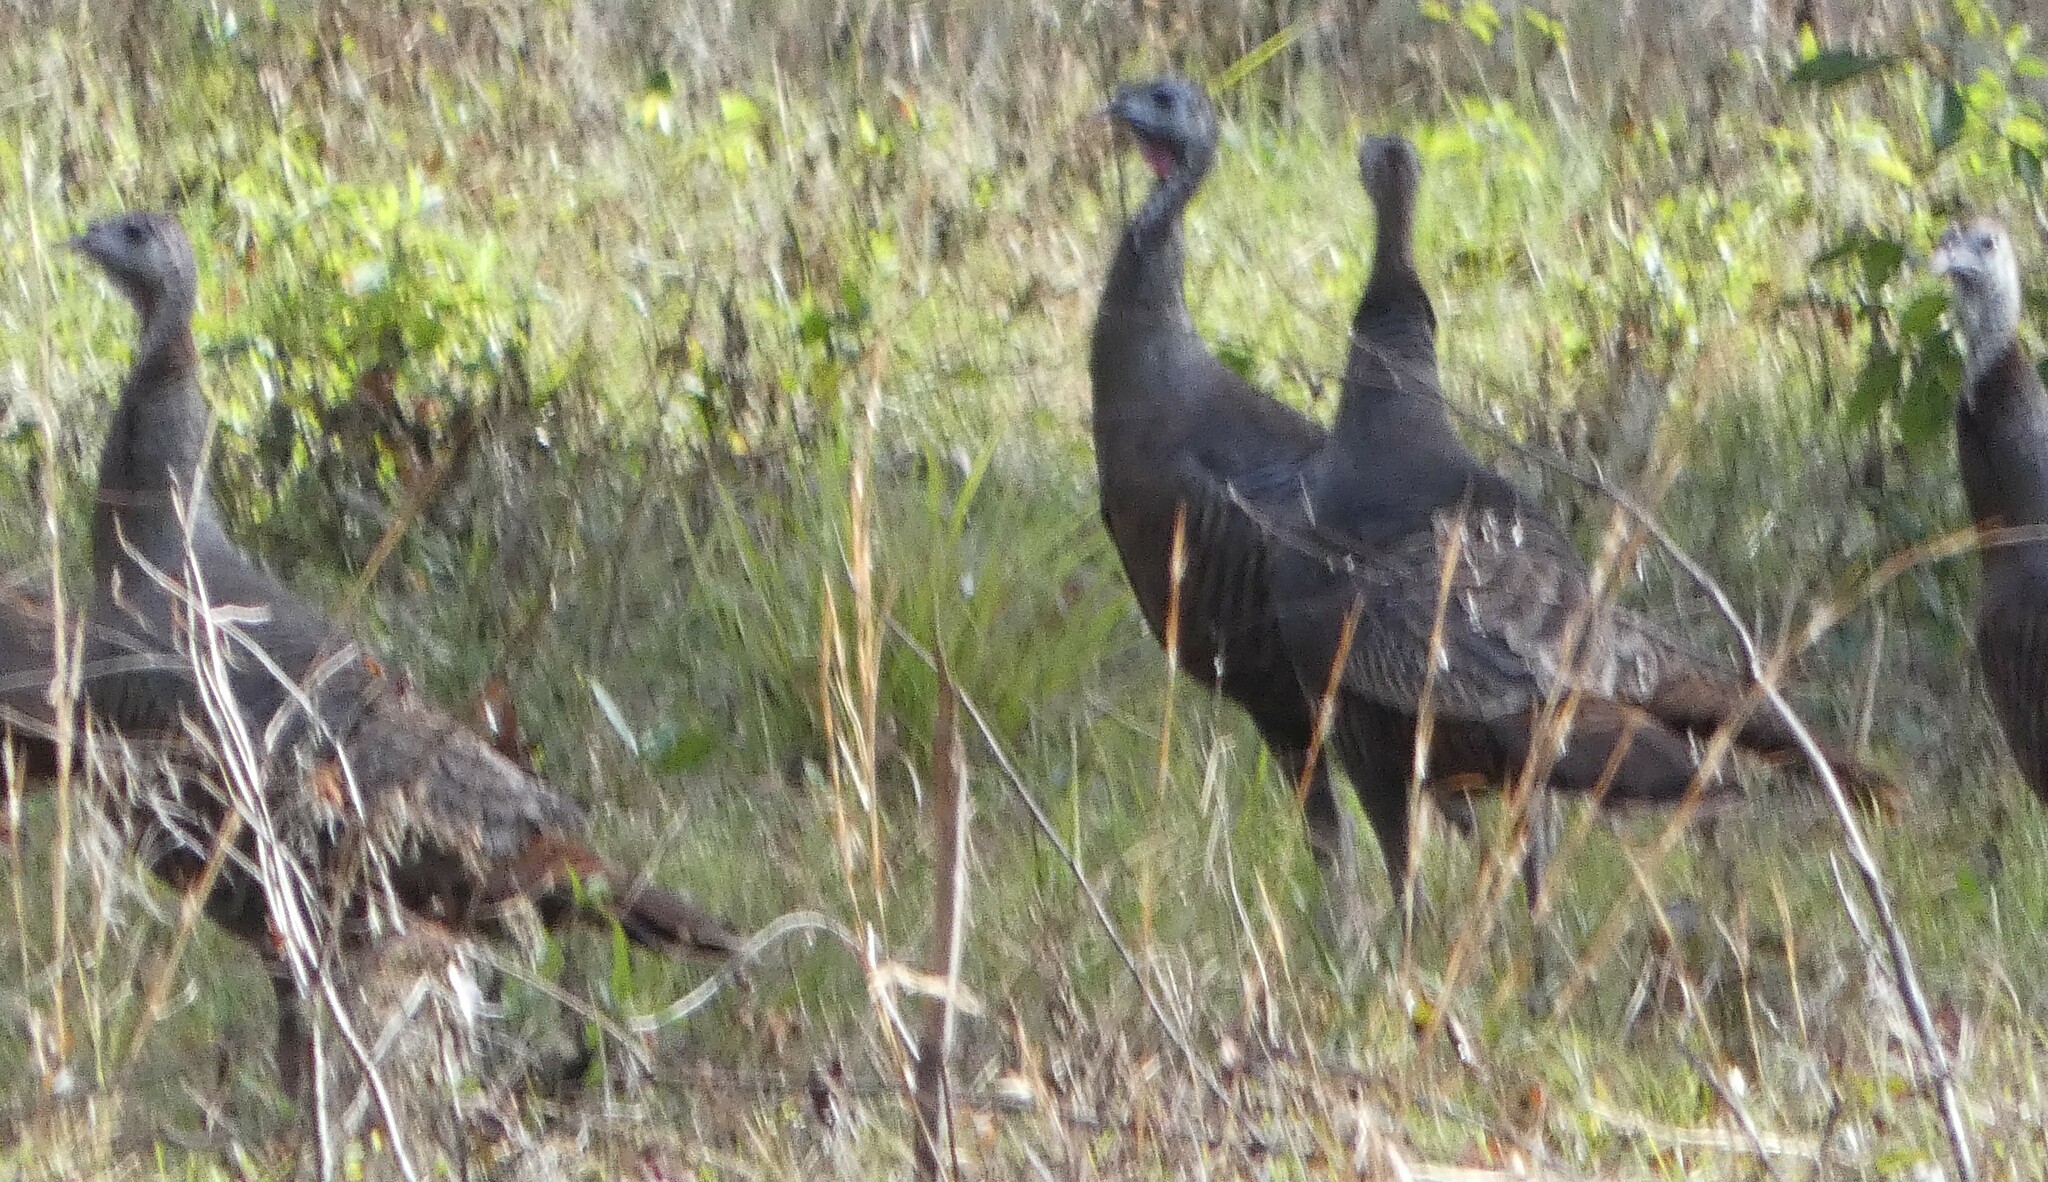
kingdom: Animalia
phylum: Chordata
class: Aves
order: Galliformes
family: Phasianidae
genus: Meleagris
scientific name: Meleagris gallopavo
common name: Wild turkey
